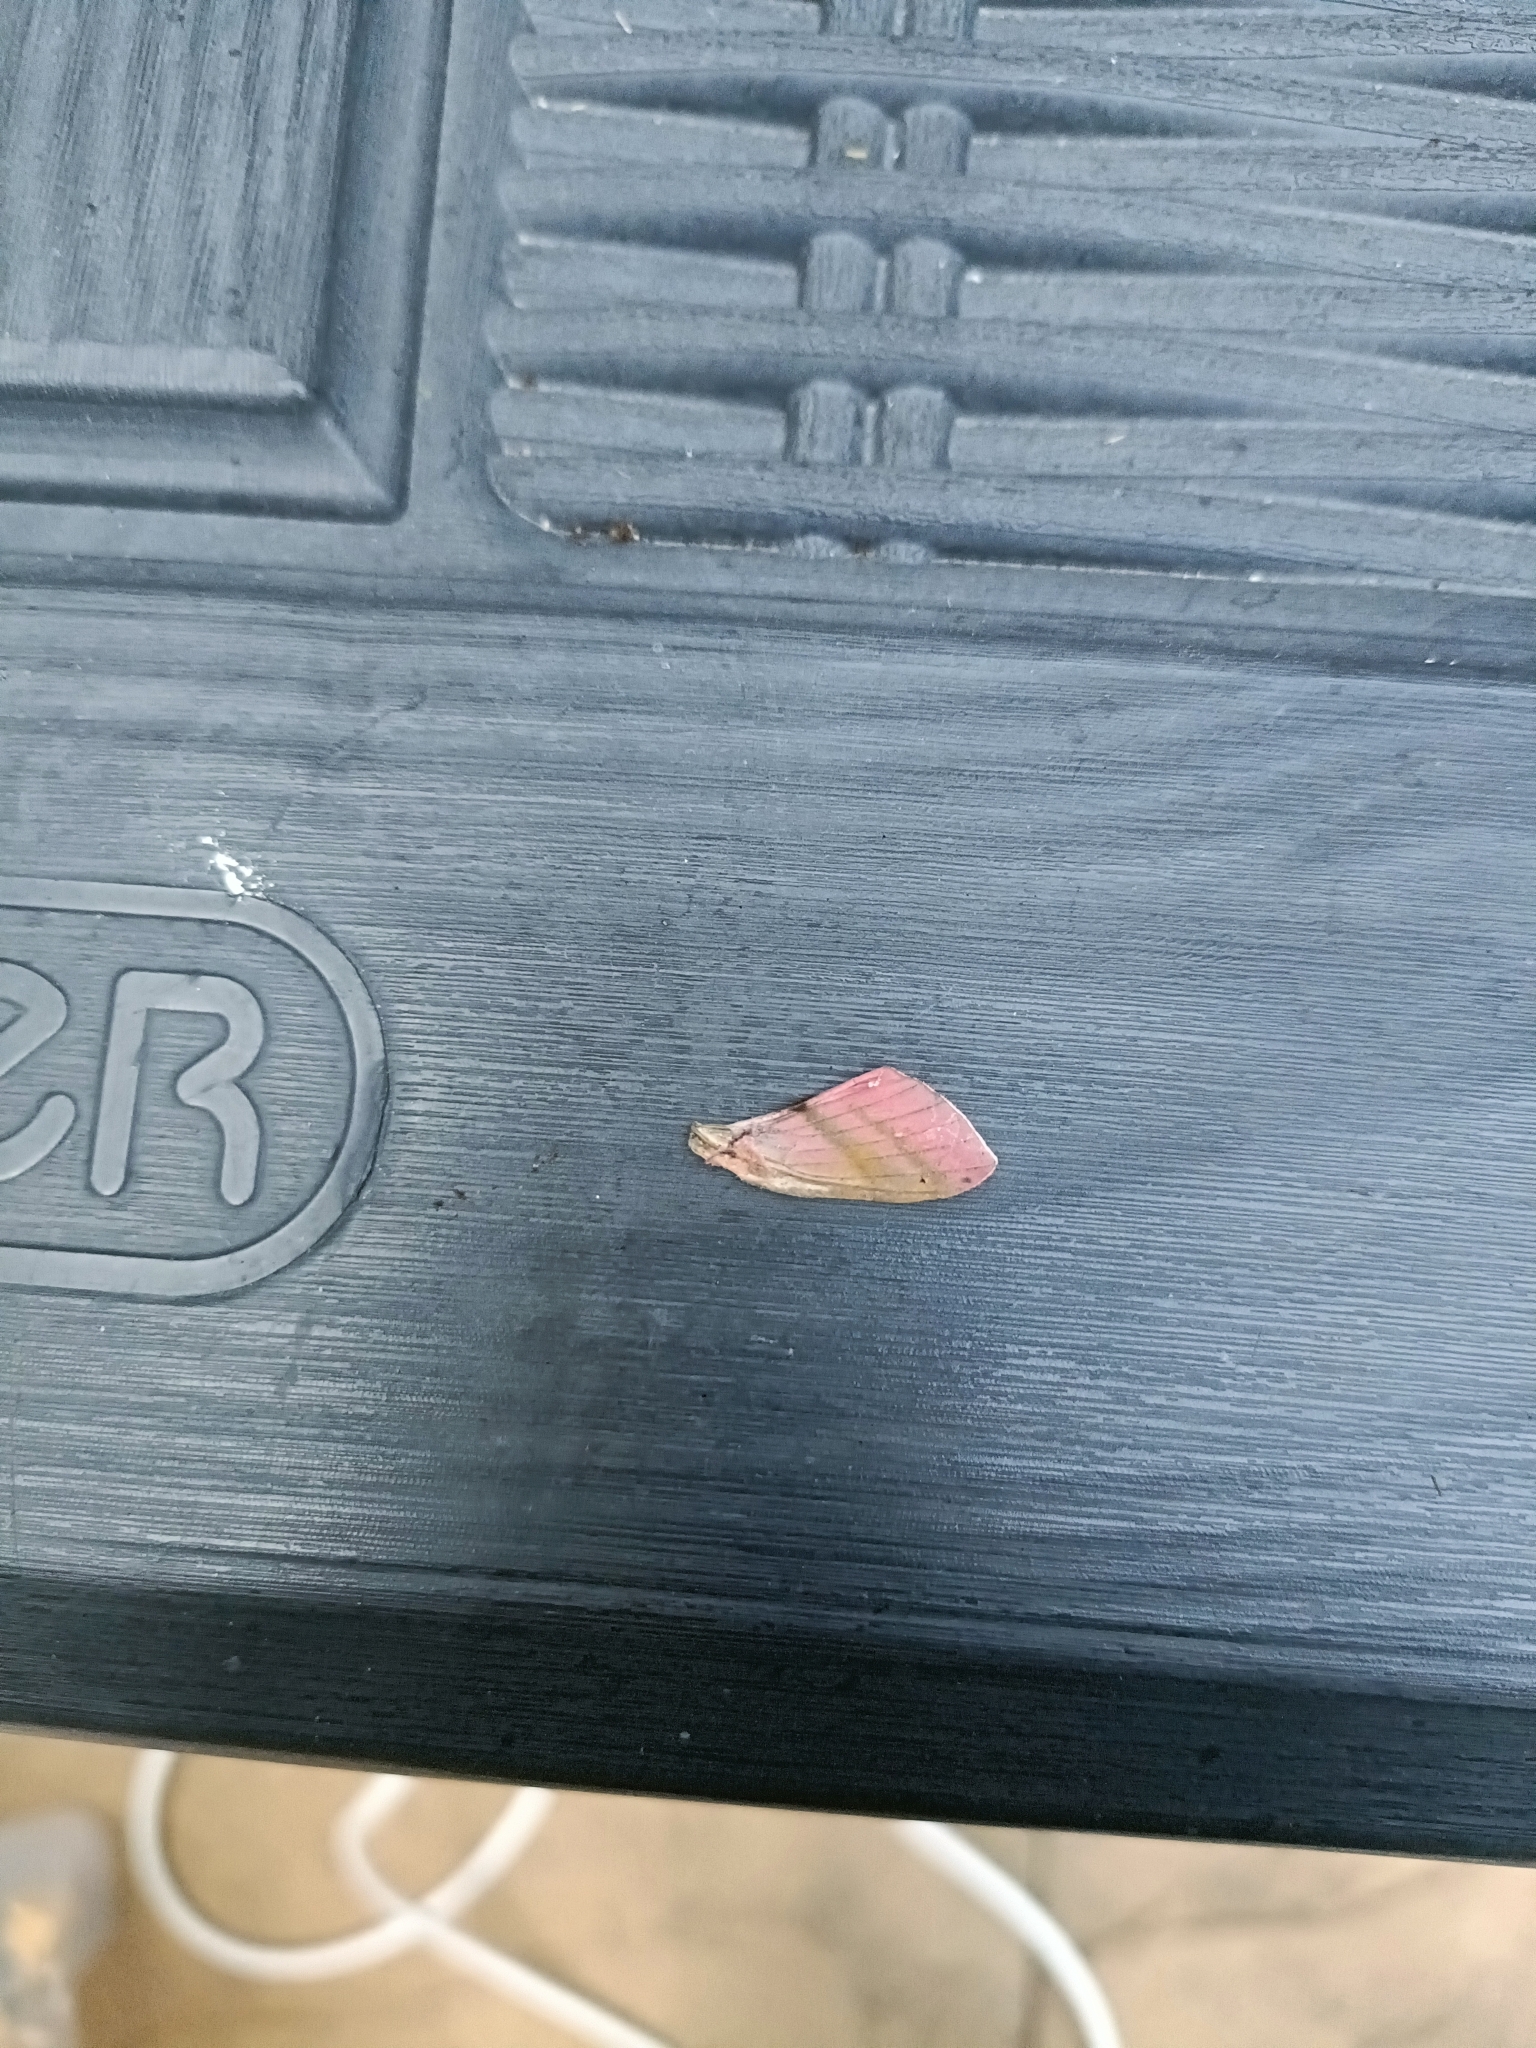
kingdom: Animalia
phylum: Arthropoda
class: Insecta
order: Lepidoptera
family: Sphingidae
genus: Deilephila
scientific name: Deilephila elpenor
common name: Elephant hawk-moth
